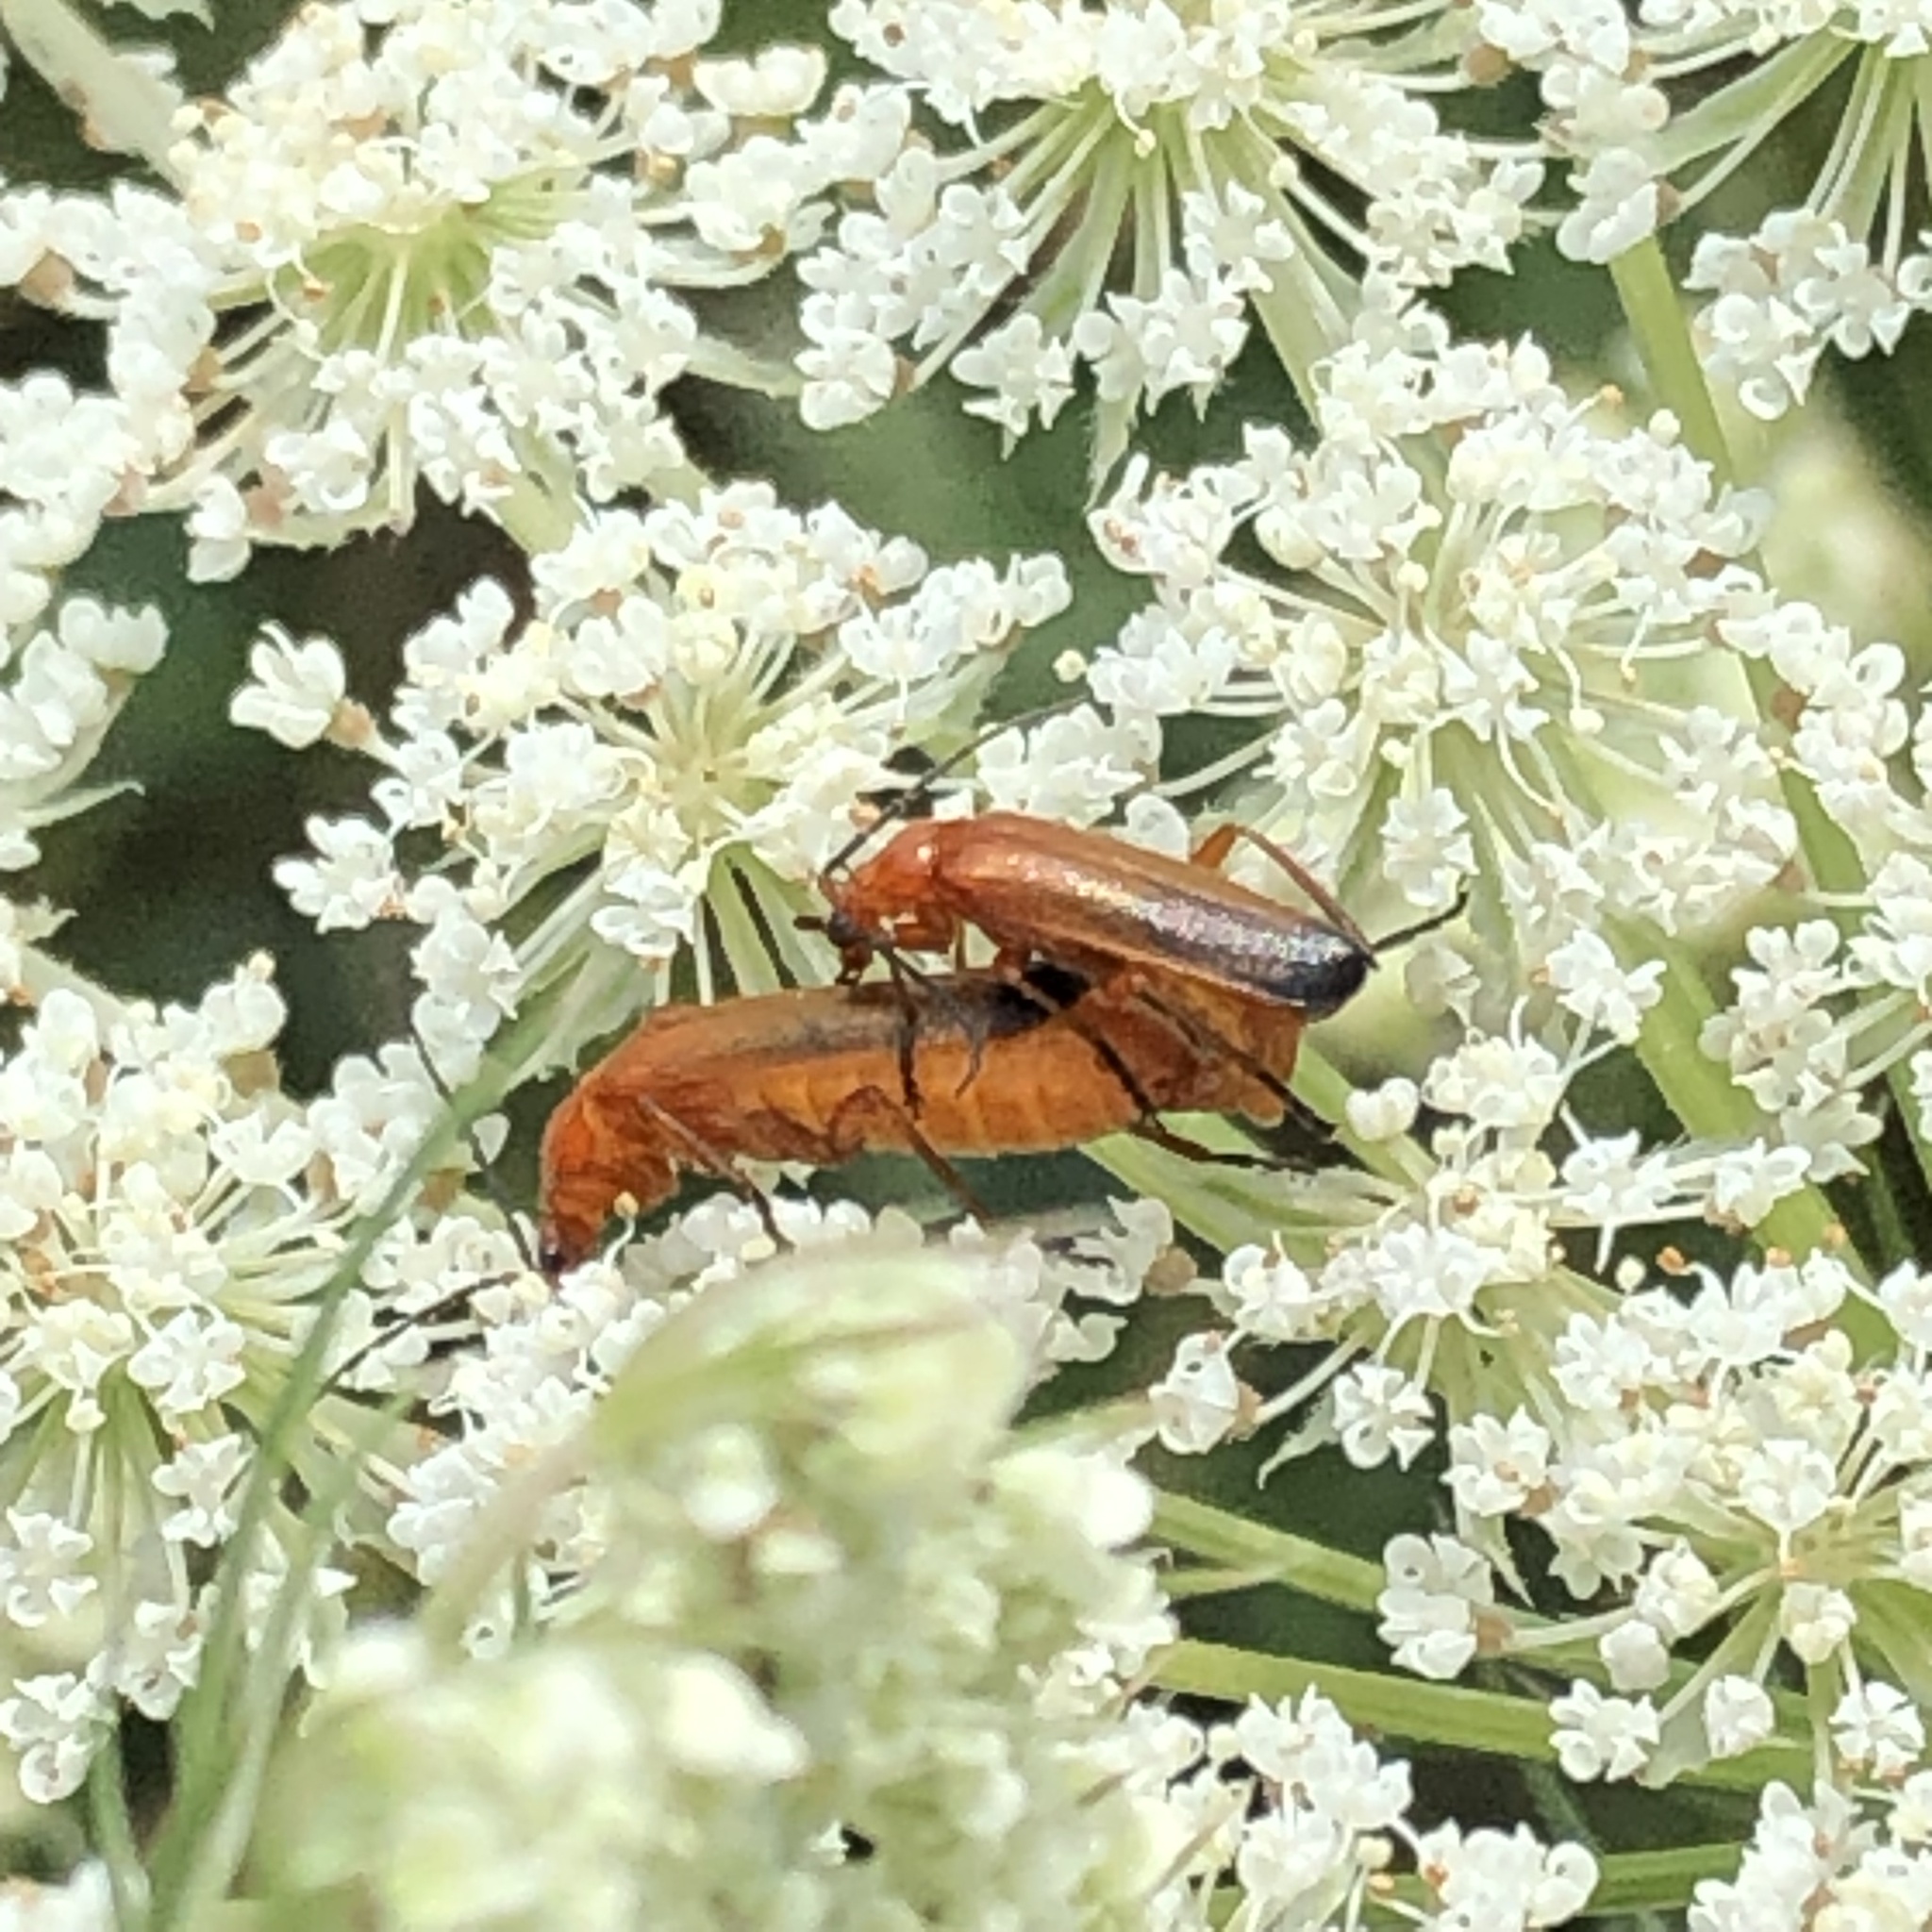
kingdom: Animalia
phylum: Arthropoda
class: Insecta
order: Coleoptera
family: Cantharidae
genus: Rhagonycha
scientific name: Rhagonycha fulva
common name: Common red soldier beetle
